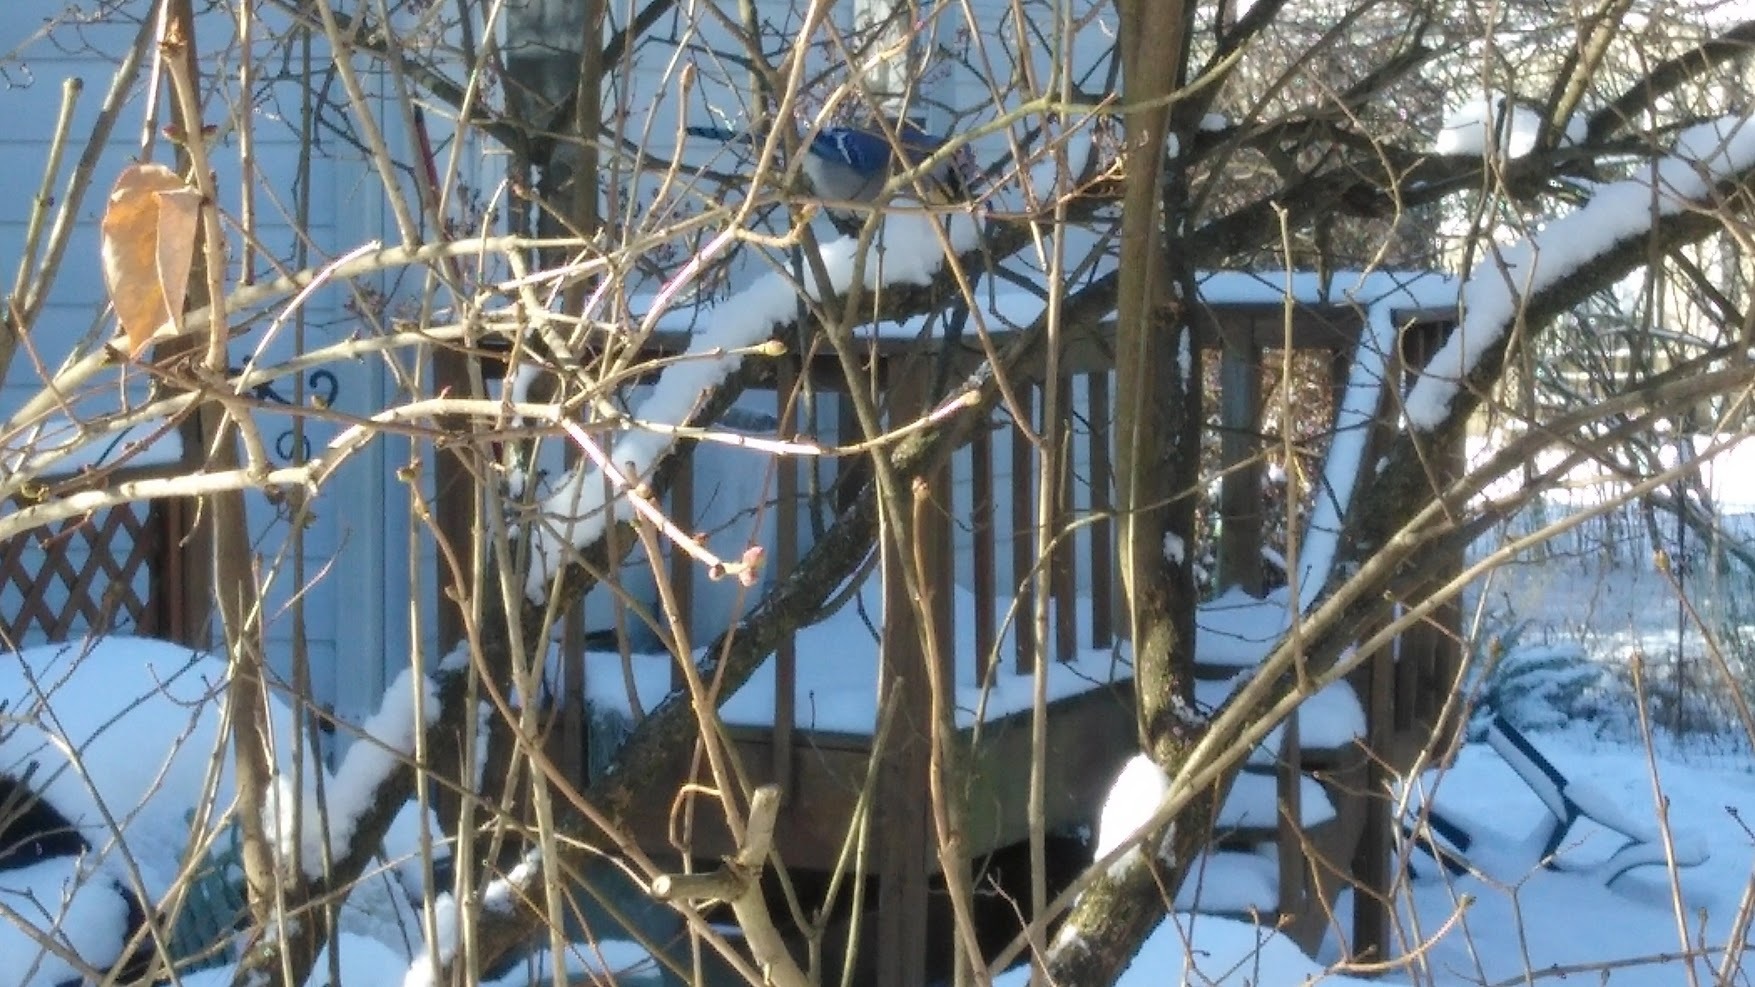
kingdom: Animalia
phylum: Chordata
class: Aves
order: Passeriformes
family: Corvidae
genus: Cyanocitta
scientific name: Cyanocitta cristata
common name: Blue jay
